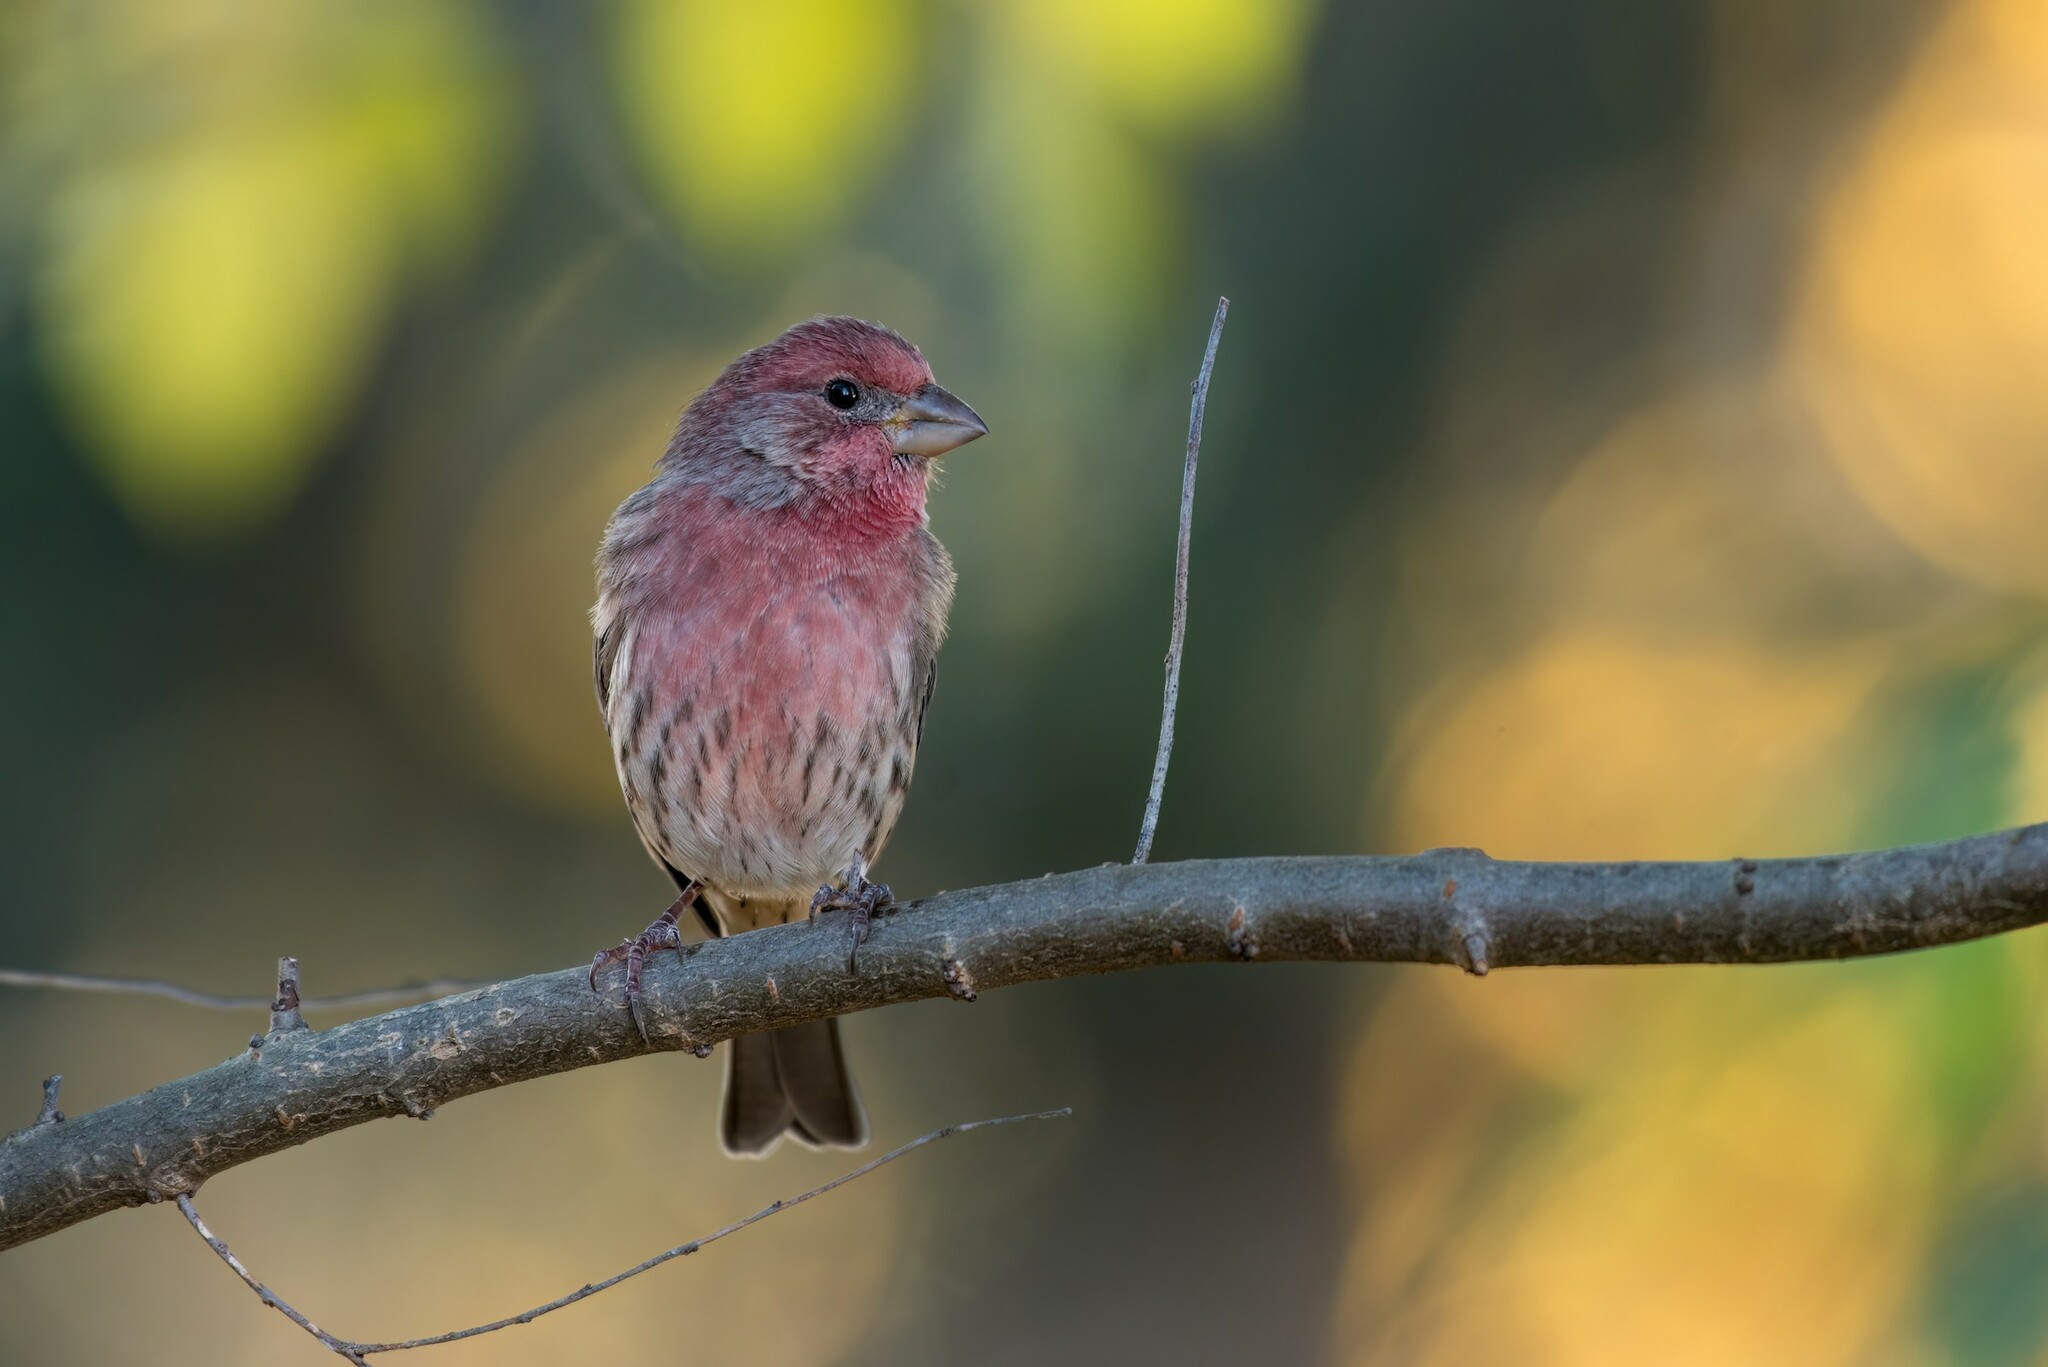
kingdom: Animalia
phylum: Chordata
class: Aves
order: Passeriformes
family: Fringillidae
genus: Haemorhous
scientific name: Haemorhous mexicanus
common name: House finch
